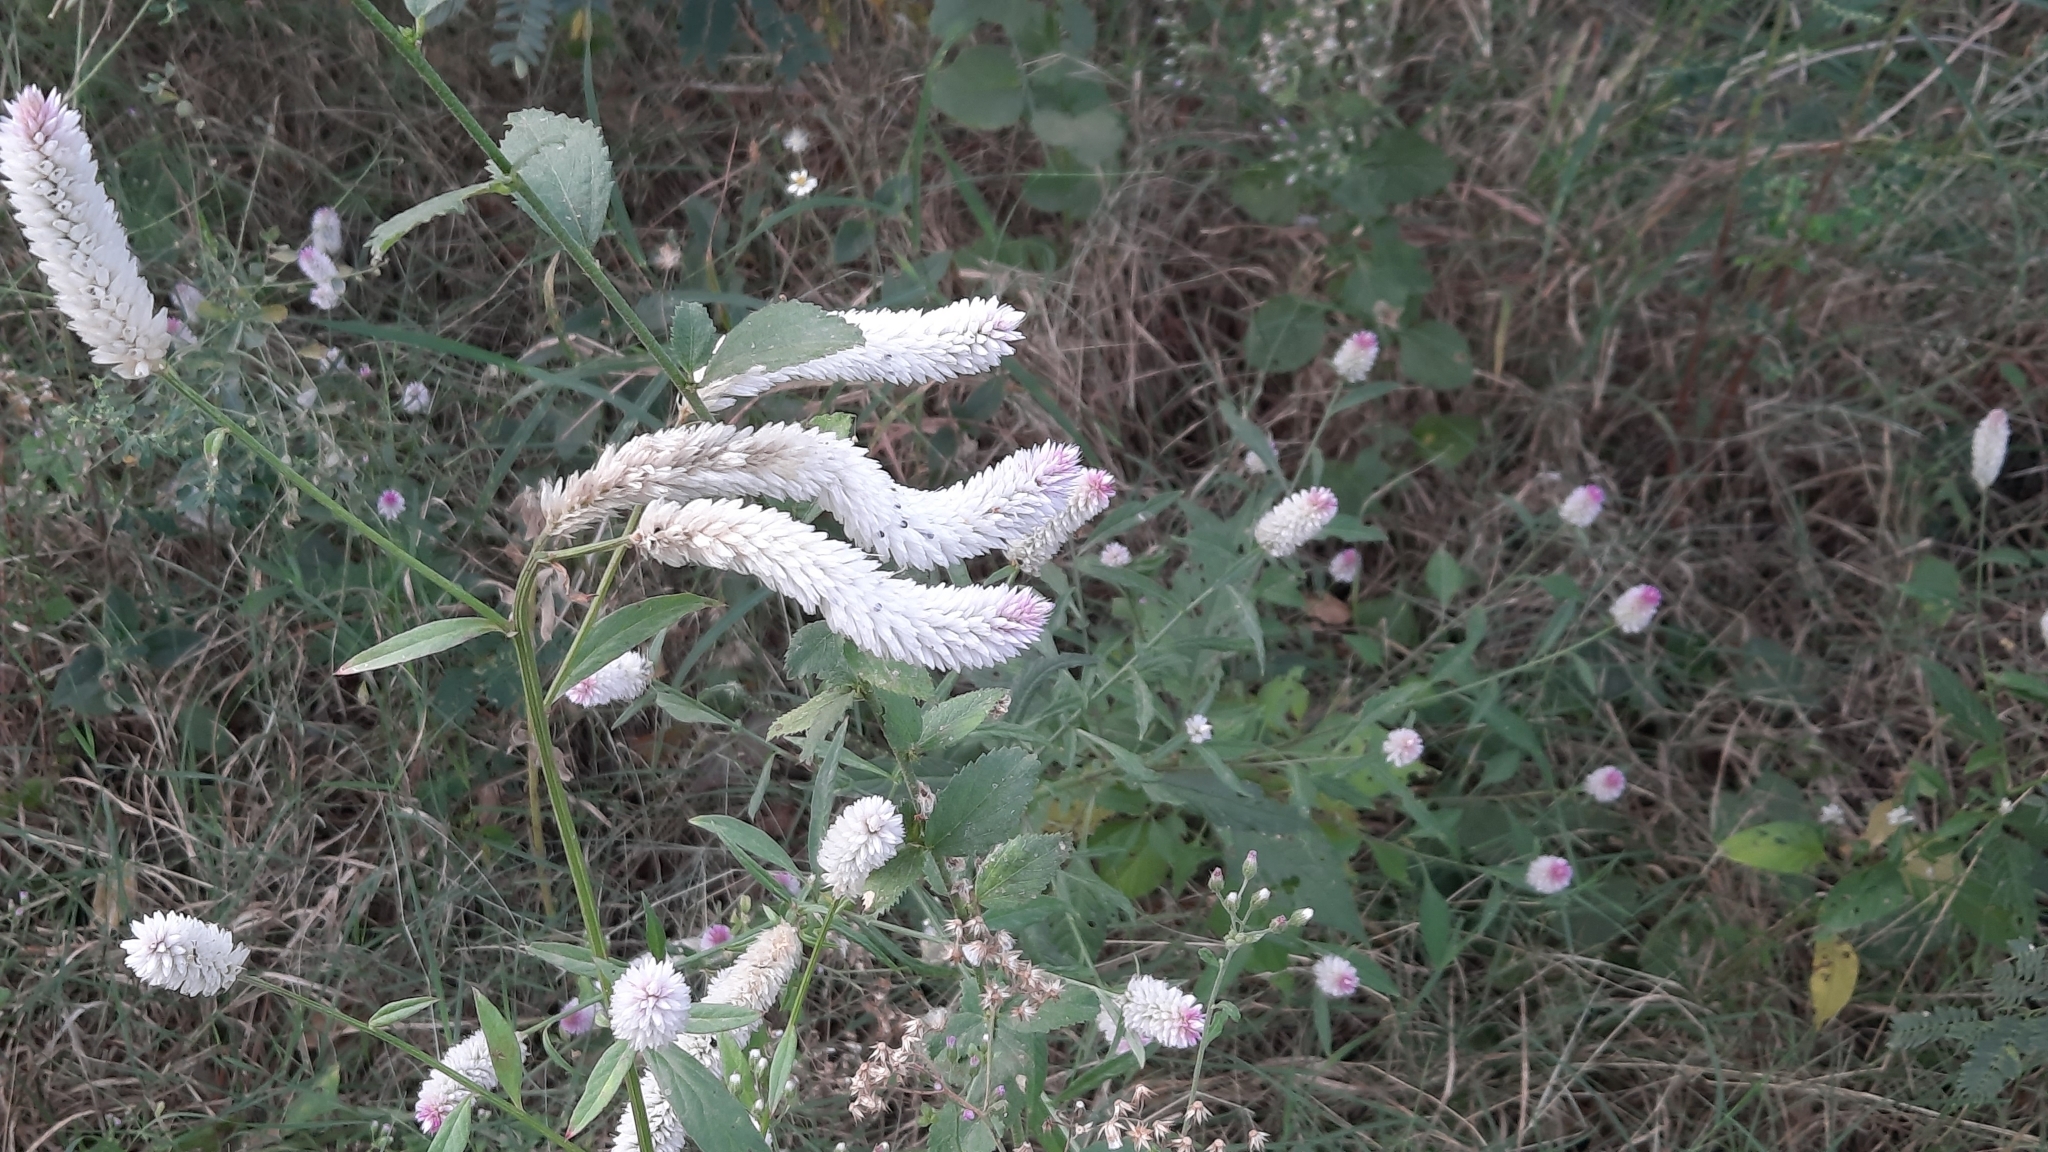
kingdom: Plantae
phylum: Tracheophyta
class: Magnoliopsida
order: Caryophyllales
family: Amaranthaceae
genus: Celosia
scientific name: Celosia argentea
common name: Feather cockscomb
